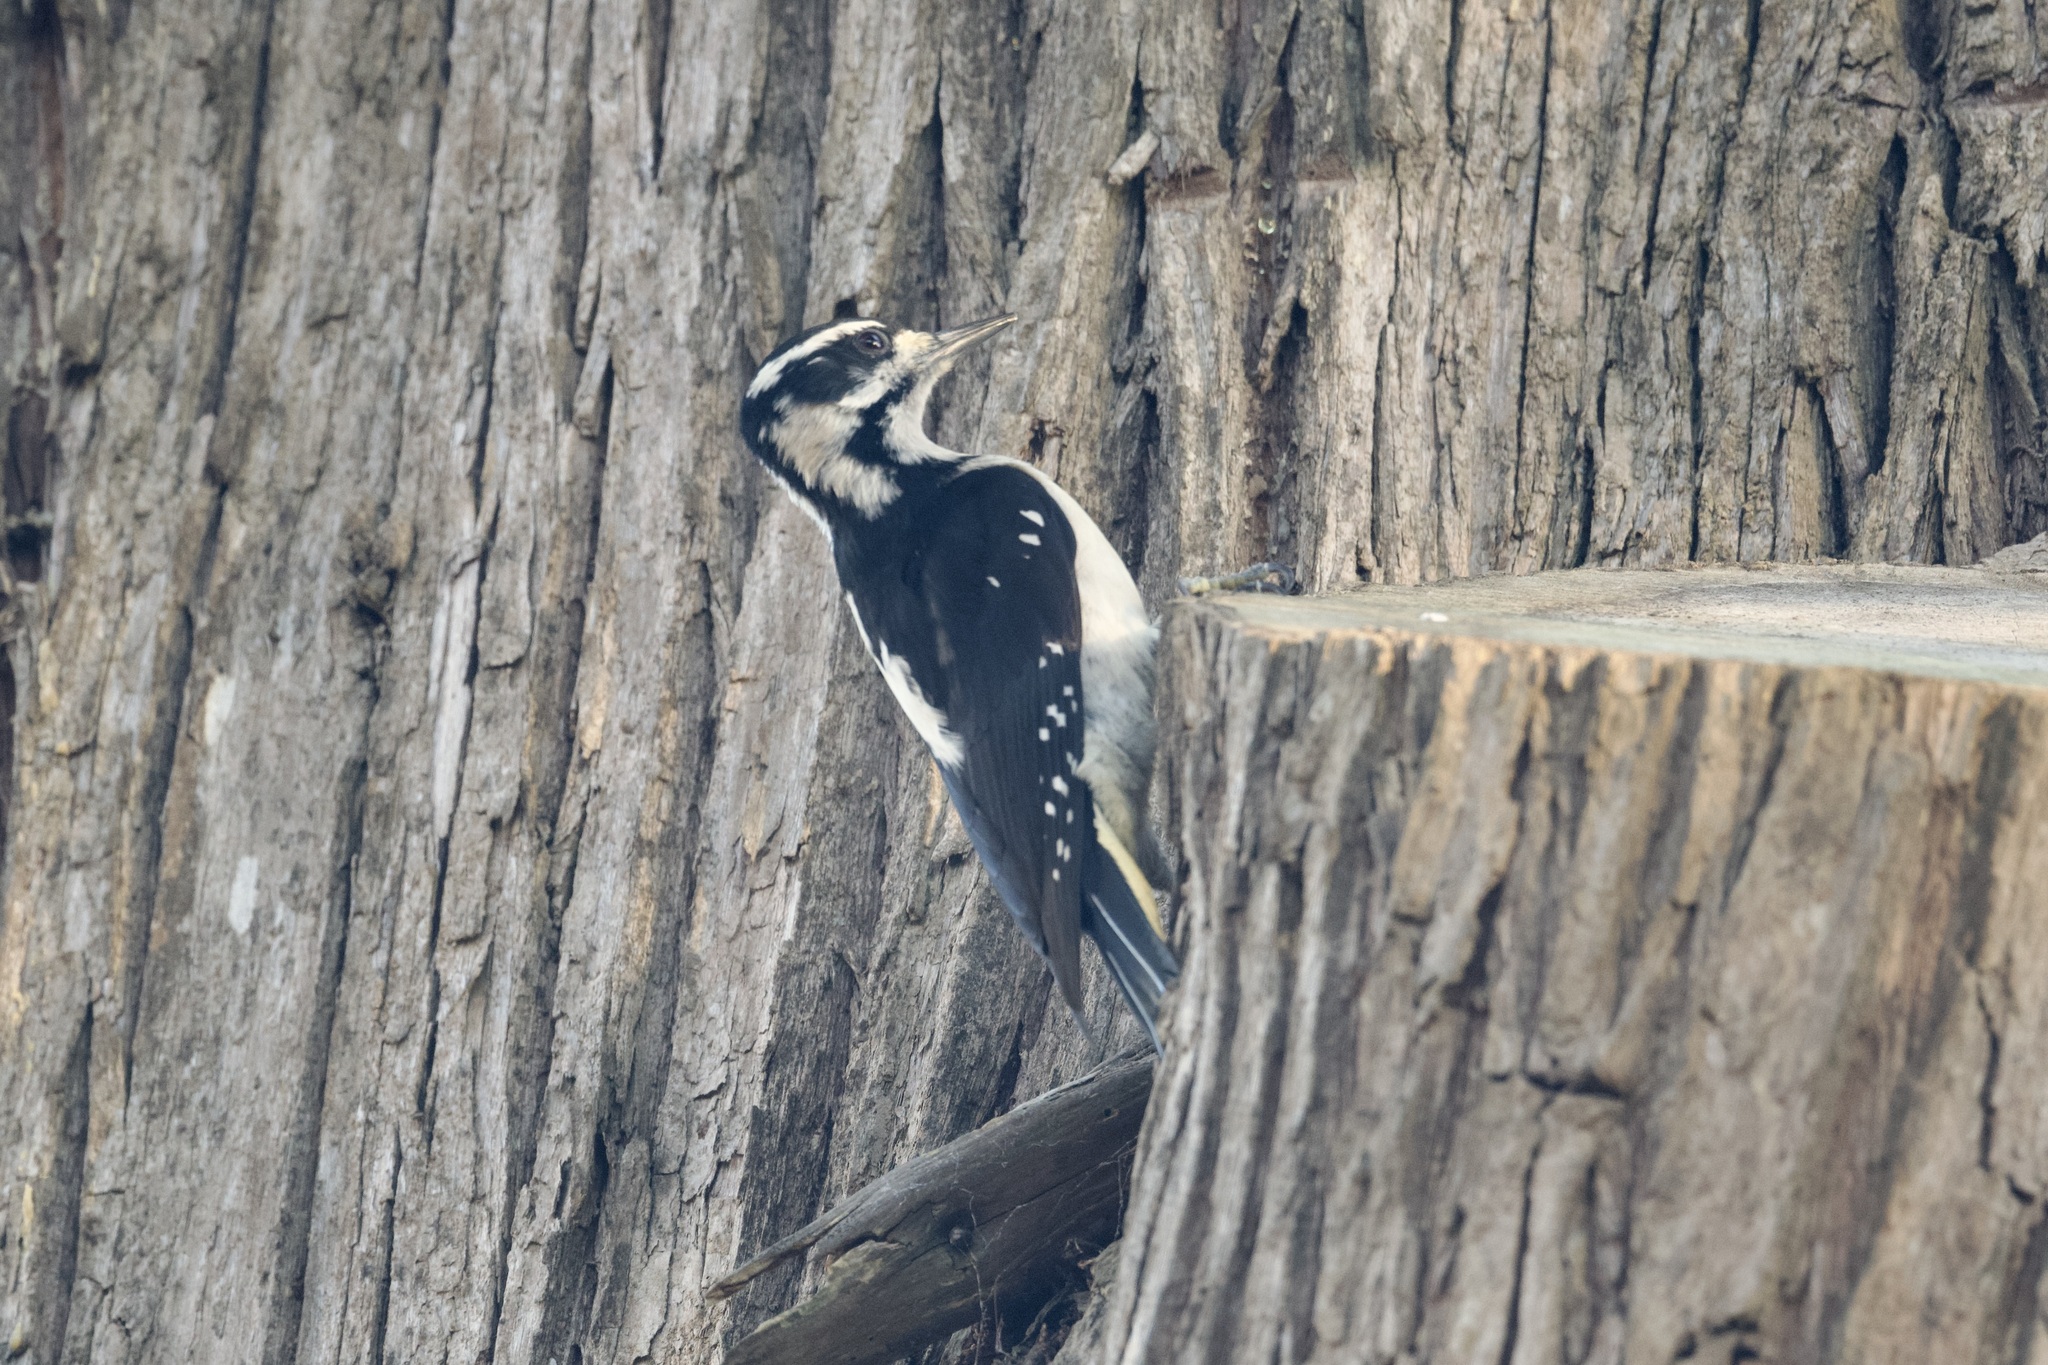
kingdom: Animalia
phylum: Chordata
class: Aves
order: Piciformes
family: Picidae
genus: Leuconotopicus
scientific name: Leuconotopicus villosus
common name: Hairy woodpecker
